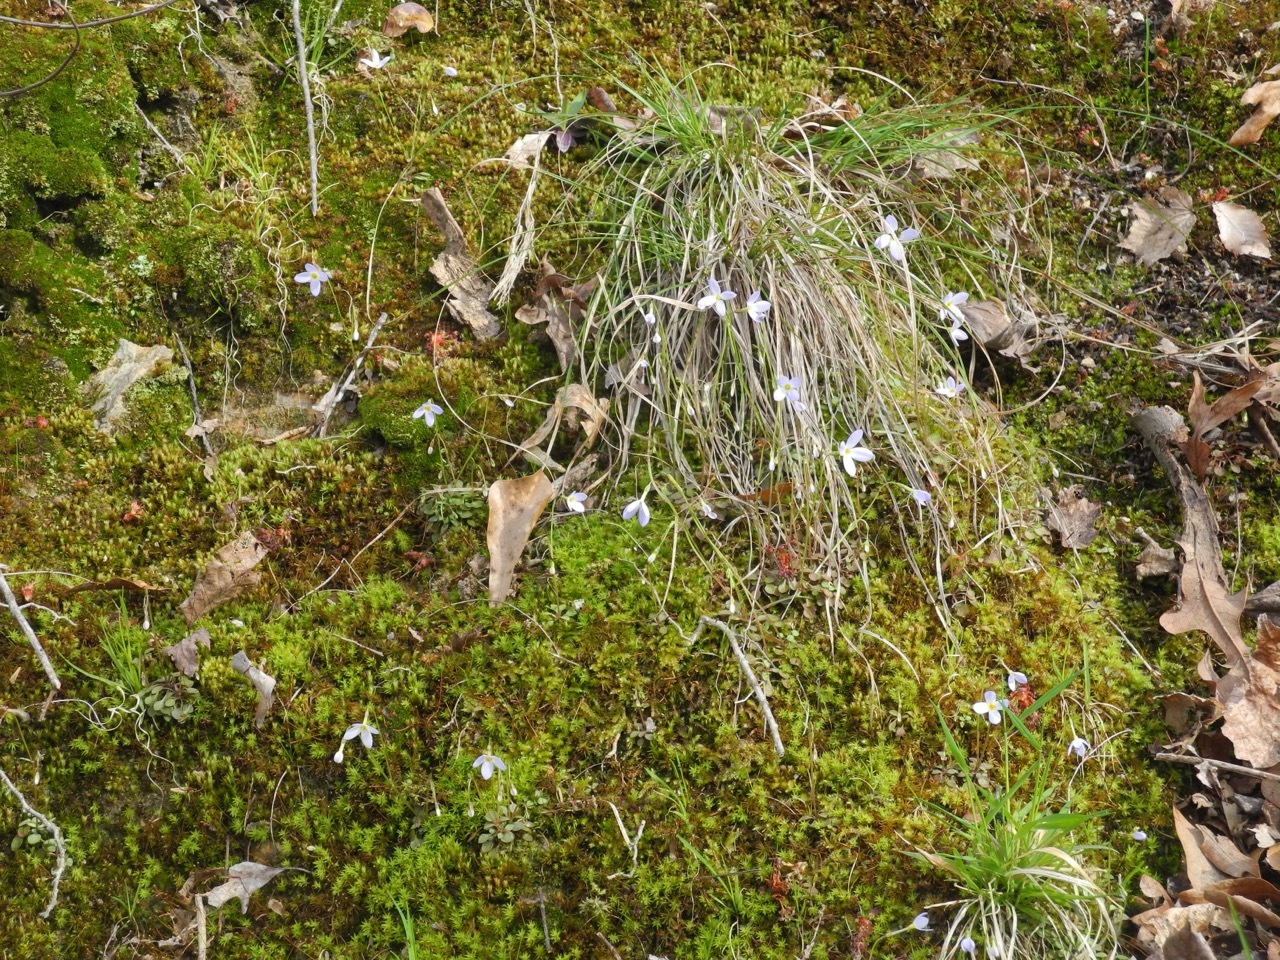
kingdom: Plantae
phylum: Tracheophyta
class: Magnoliopsida
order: Gentianales
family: Rubiaceae
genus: Houstonia
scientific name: Houstonia caerulea
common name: Bluets
